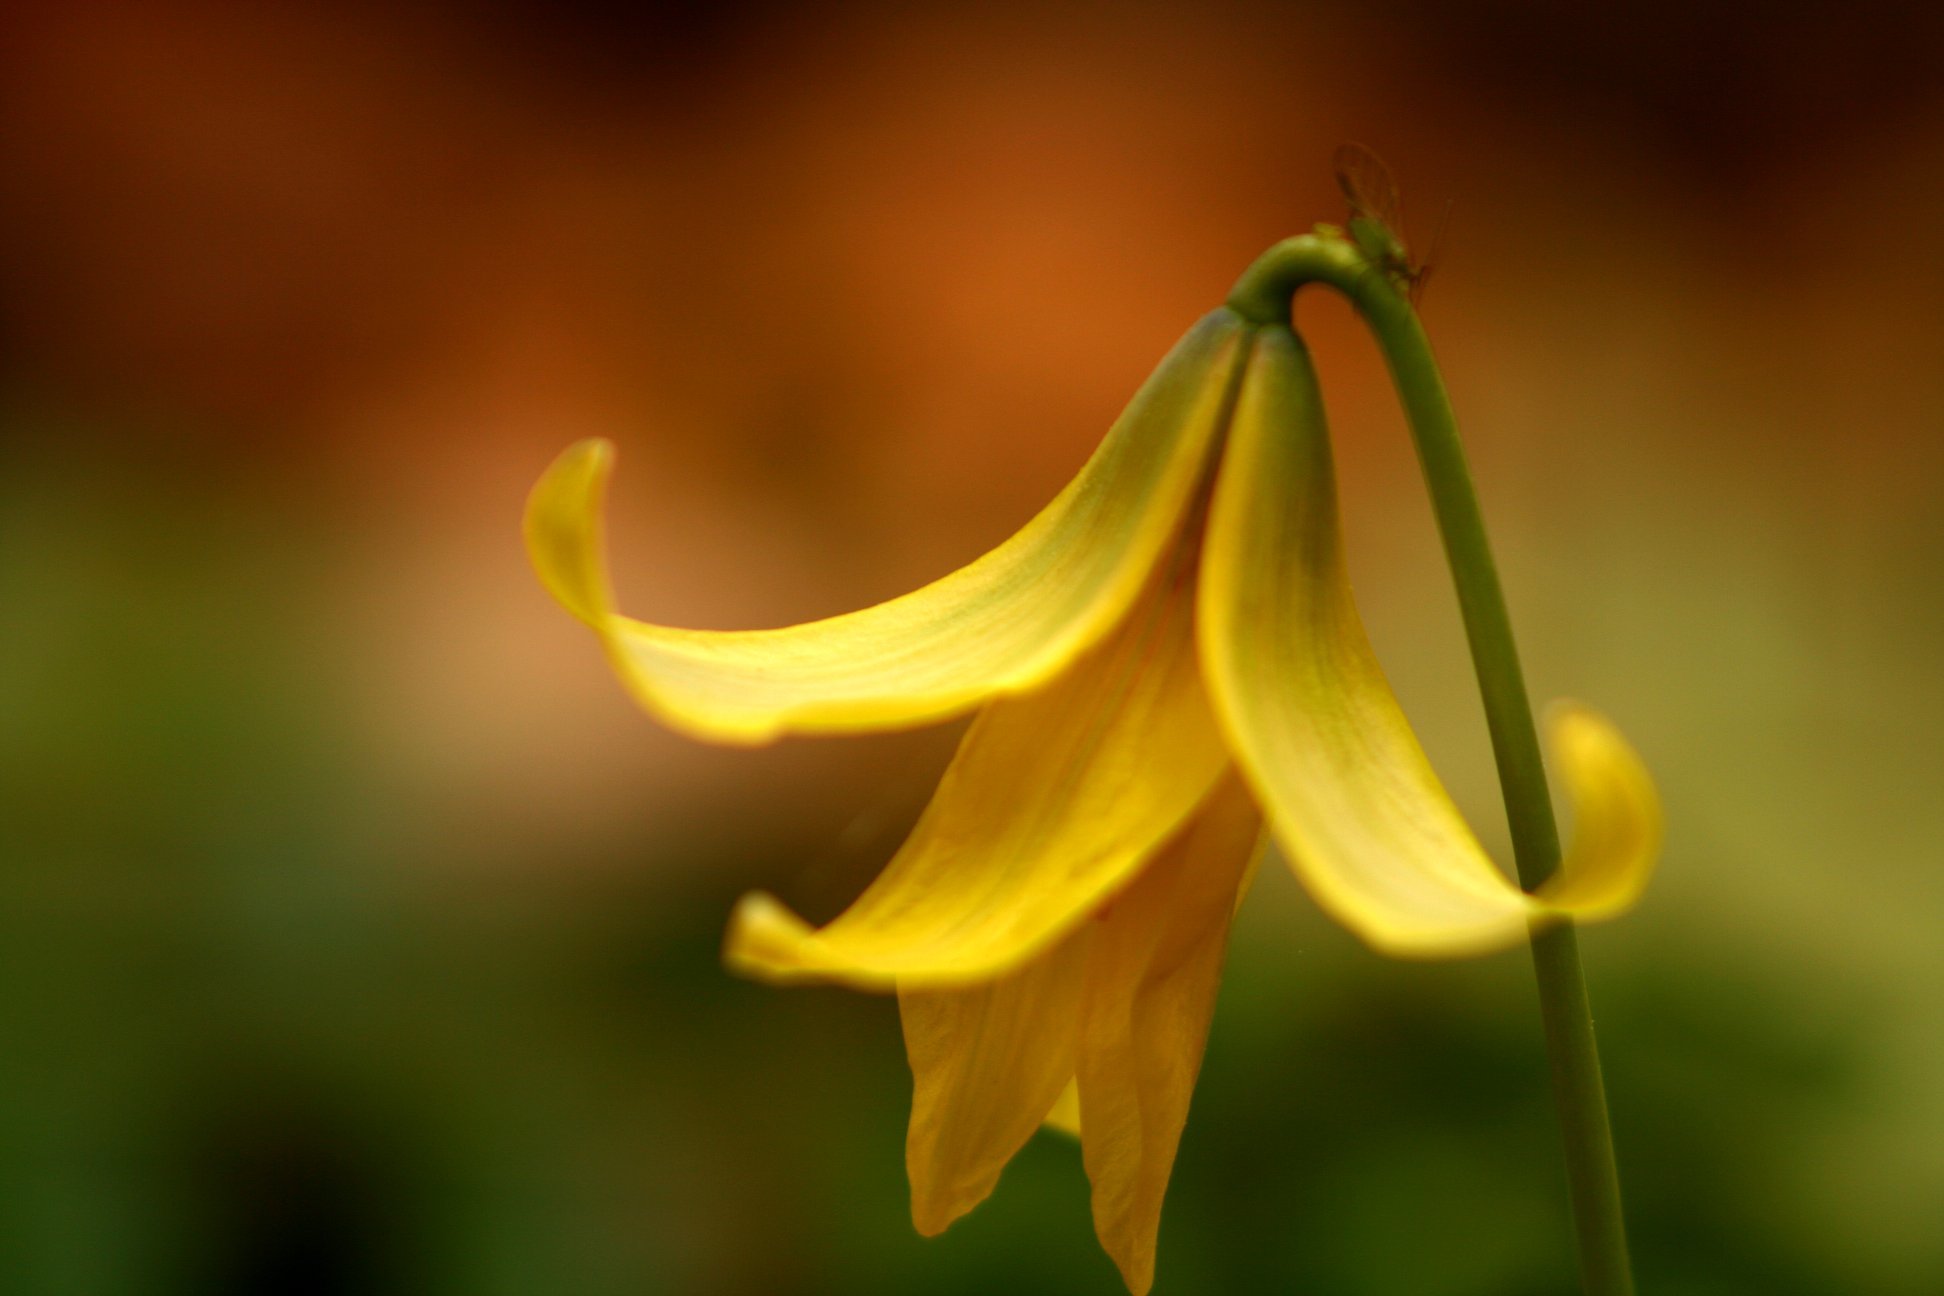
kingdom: Plantae
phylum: Tracheophyta
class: Liliopsida
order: Liliales
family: Liliaceae
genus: Erythronium
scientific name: Erythronium americanum
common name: Yellow adder's-tongue
